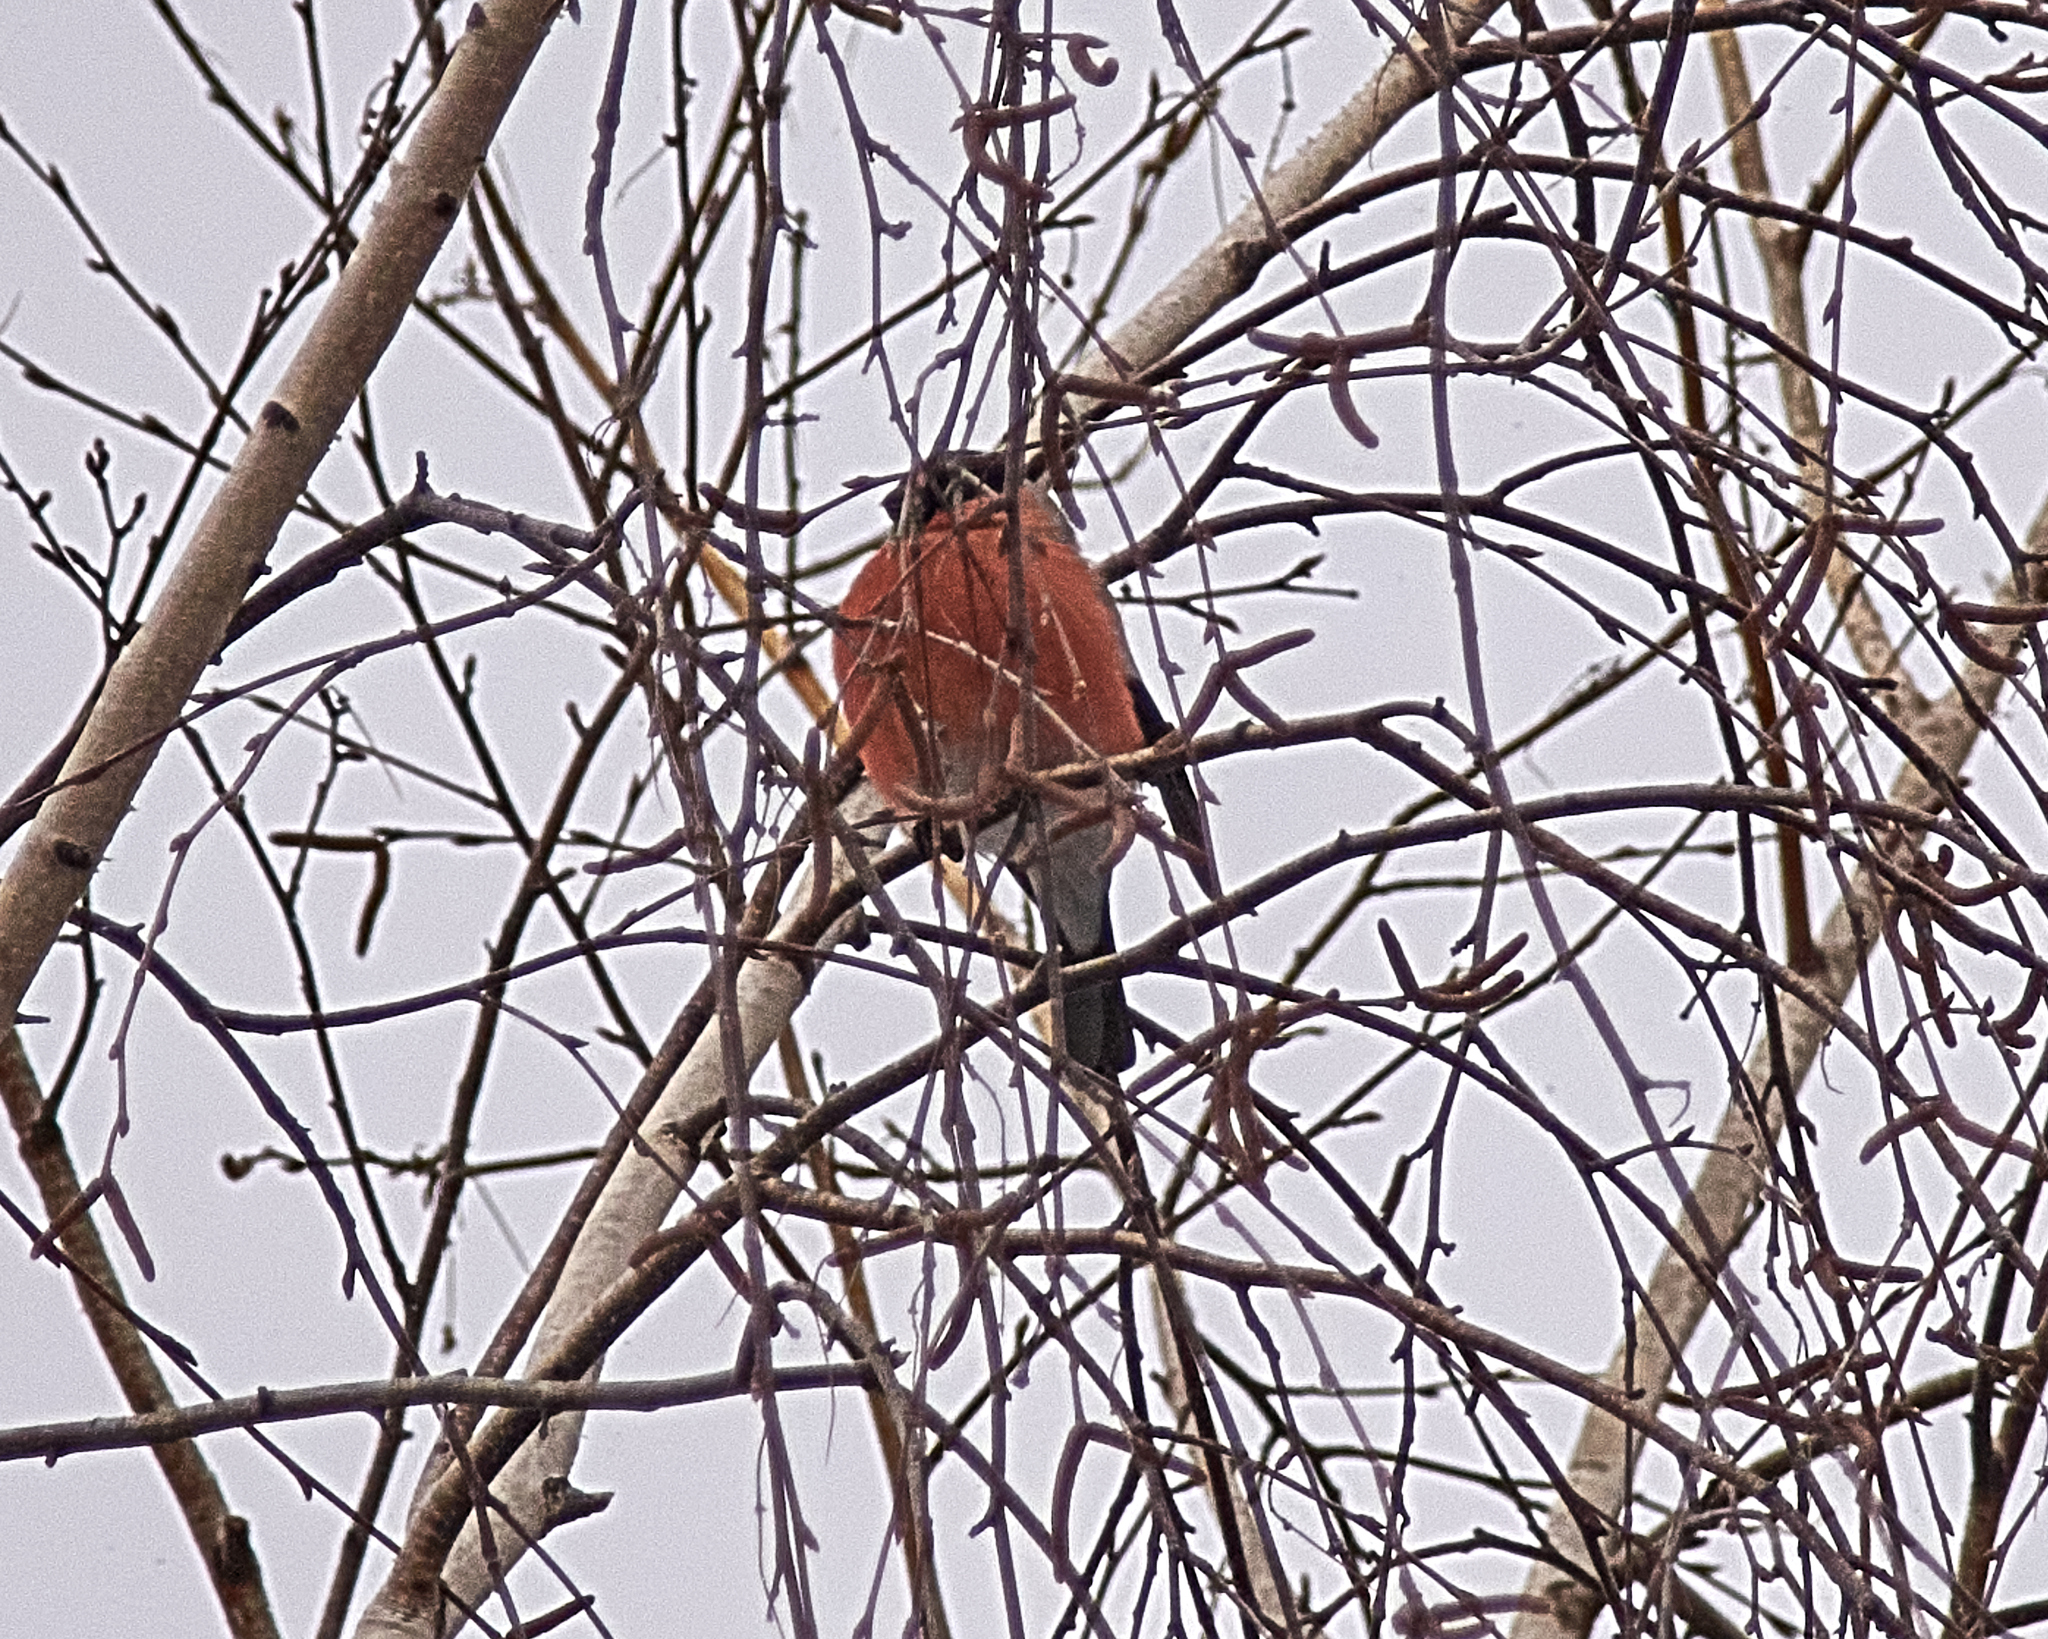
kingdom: Animalia
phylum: Chordata
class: Aves
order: Passeriformes
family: Fringillidae
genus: Pyrrhula
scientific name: Pyrrhula pyrrhula
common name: Eurasian bullfinch
